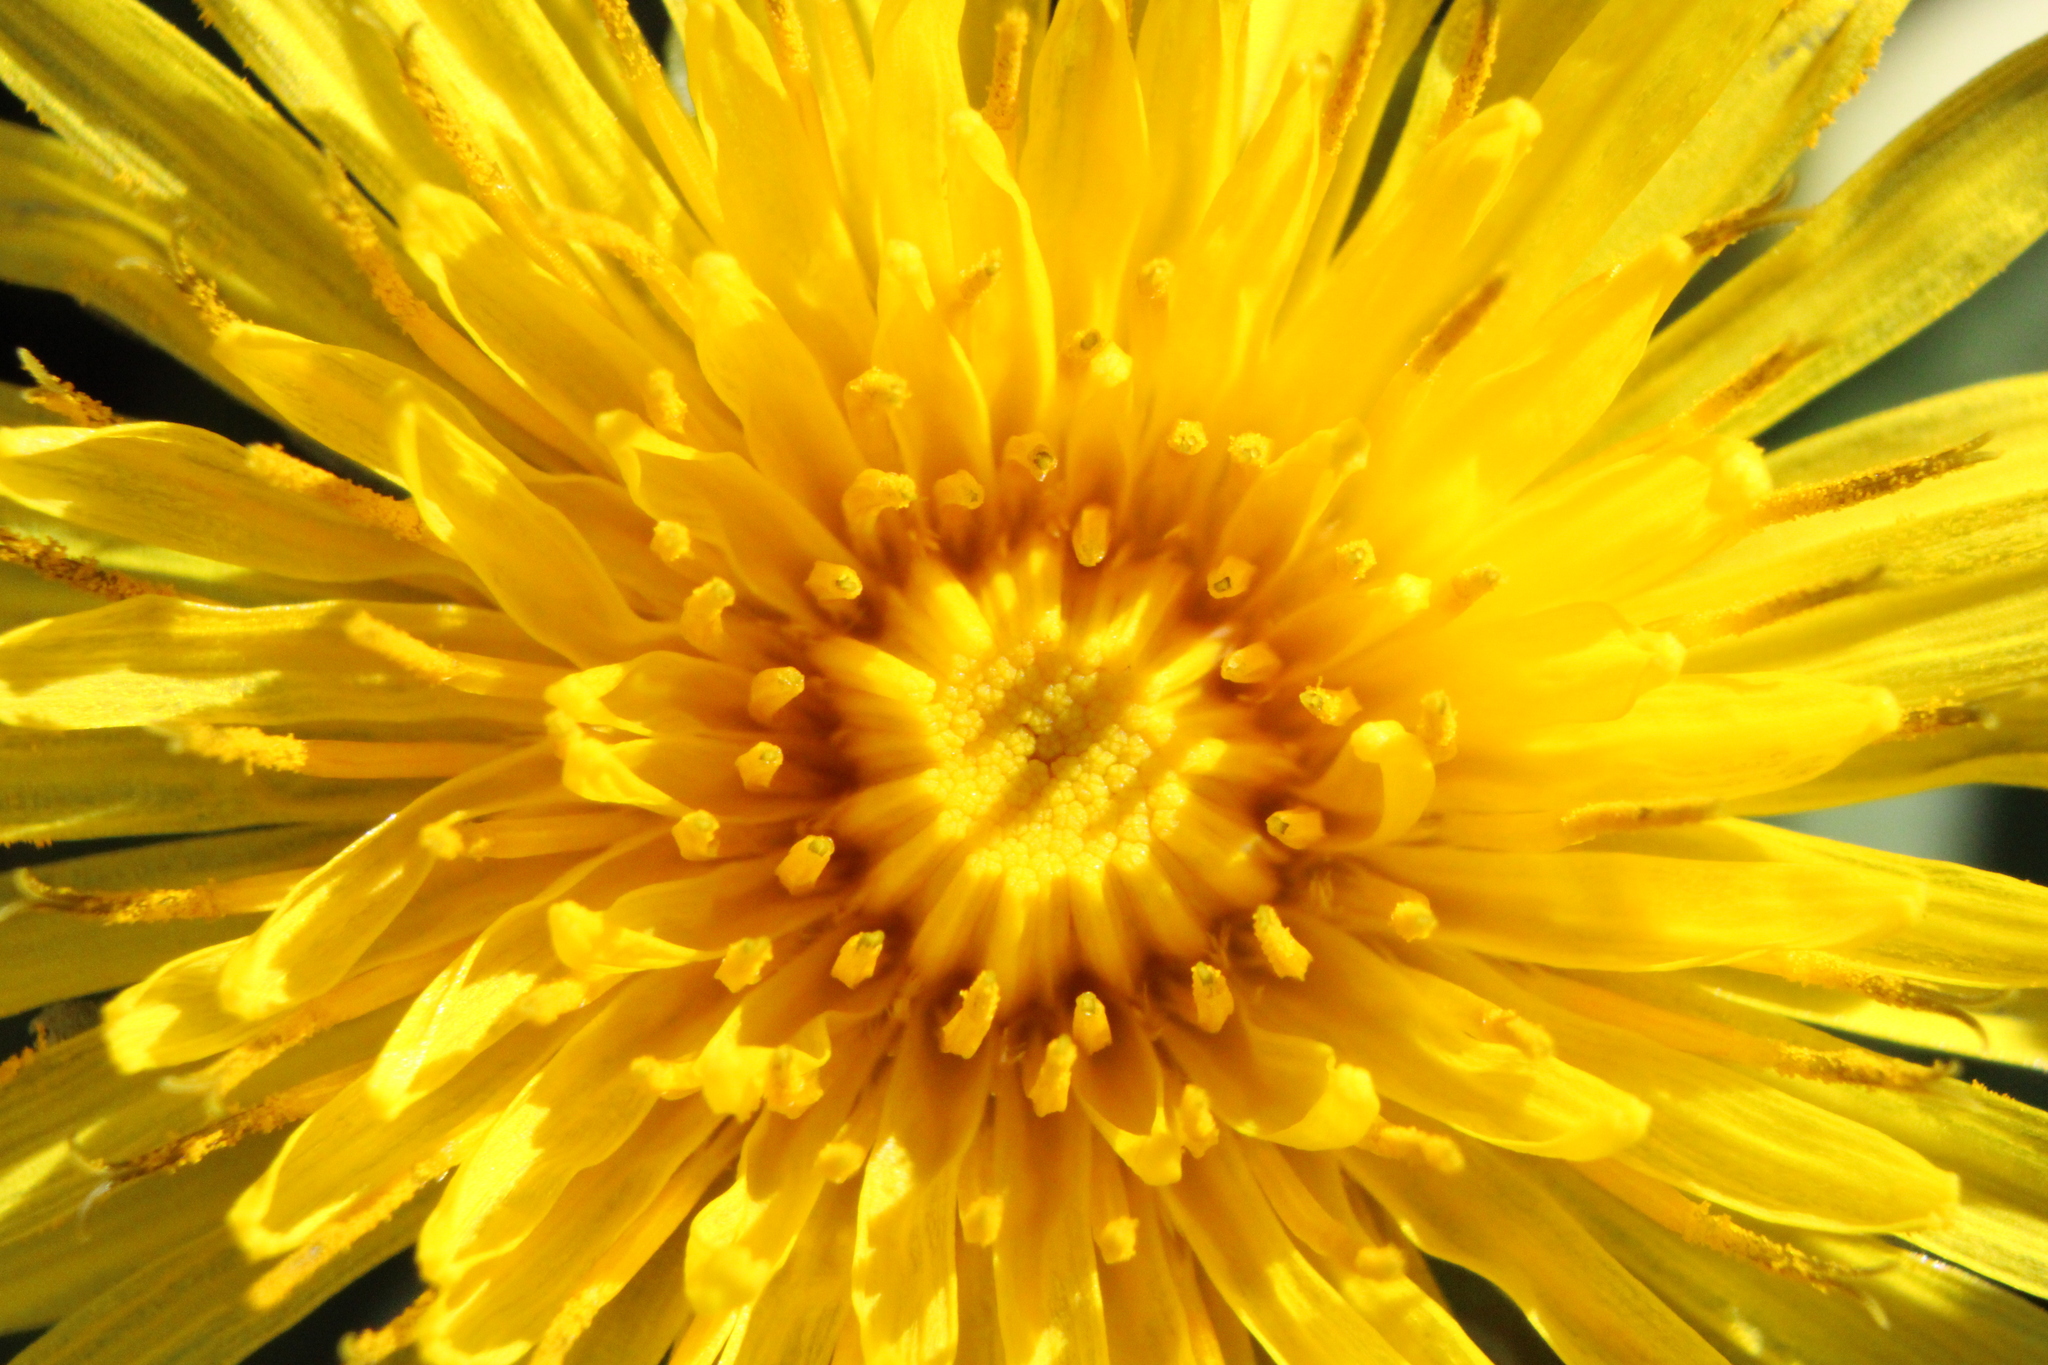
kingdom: Plantae
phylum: Tracheophyta
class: Magnoliopsida
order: Asterales
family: Asteraceae
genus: Taraxacum
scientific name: Taraxacum
